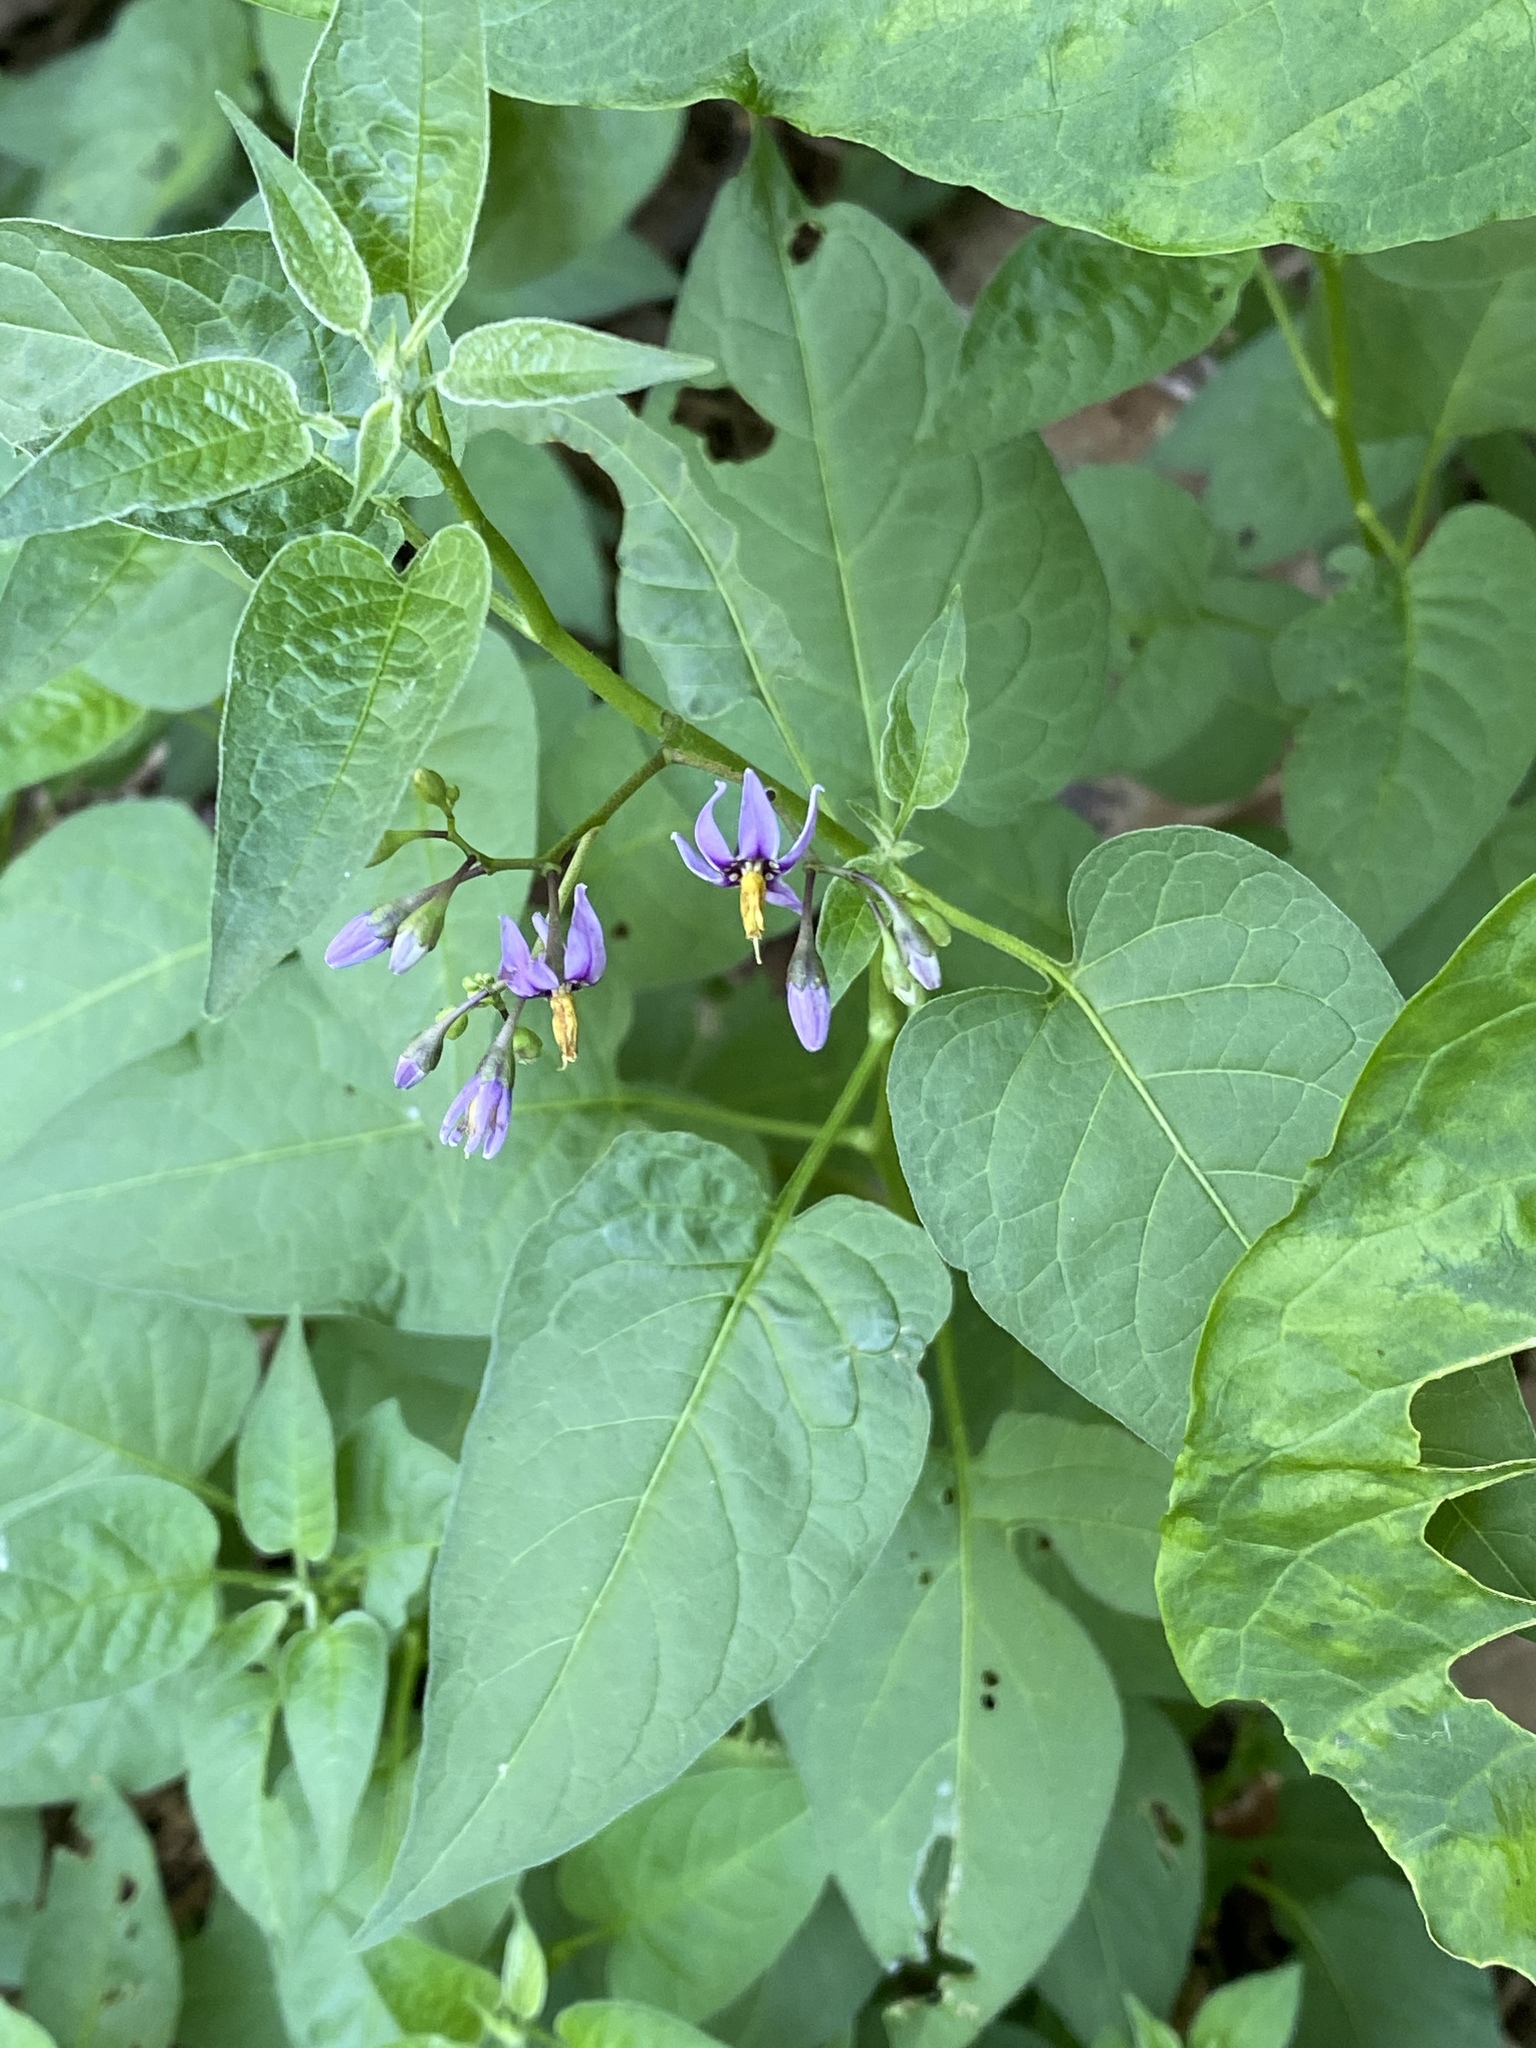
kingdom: Plantae
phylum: Tracheophyta
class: Magnoliopsida
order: Solanales
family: Solanaceae
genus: Solanum
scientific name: Solanum dulcamara
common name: Climbing nightshade
